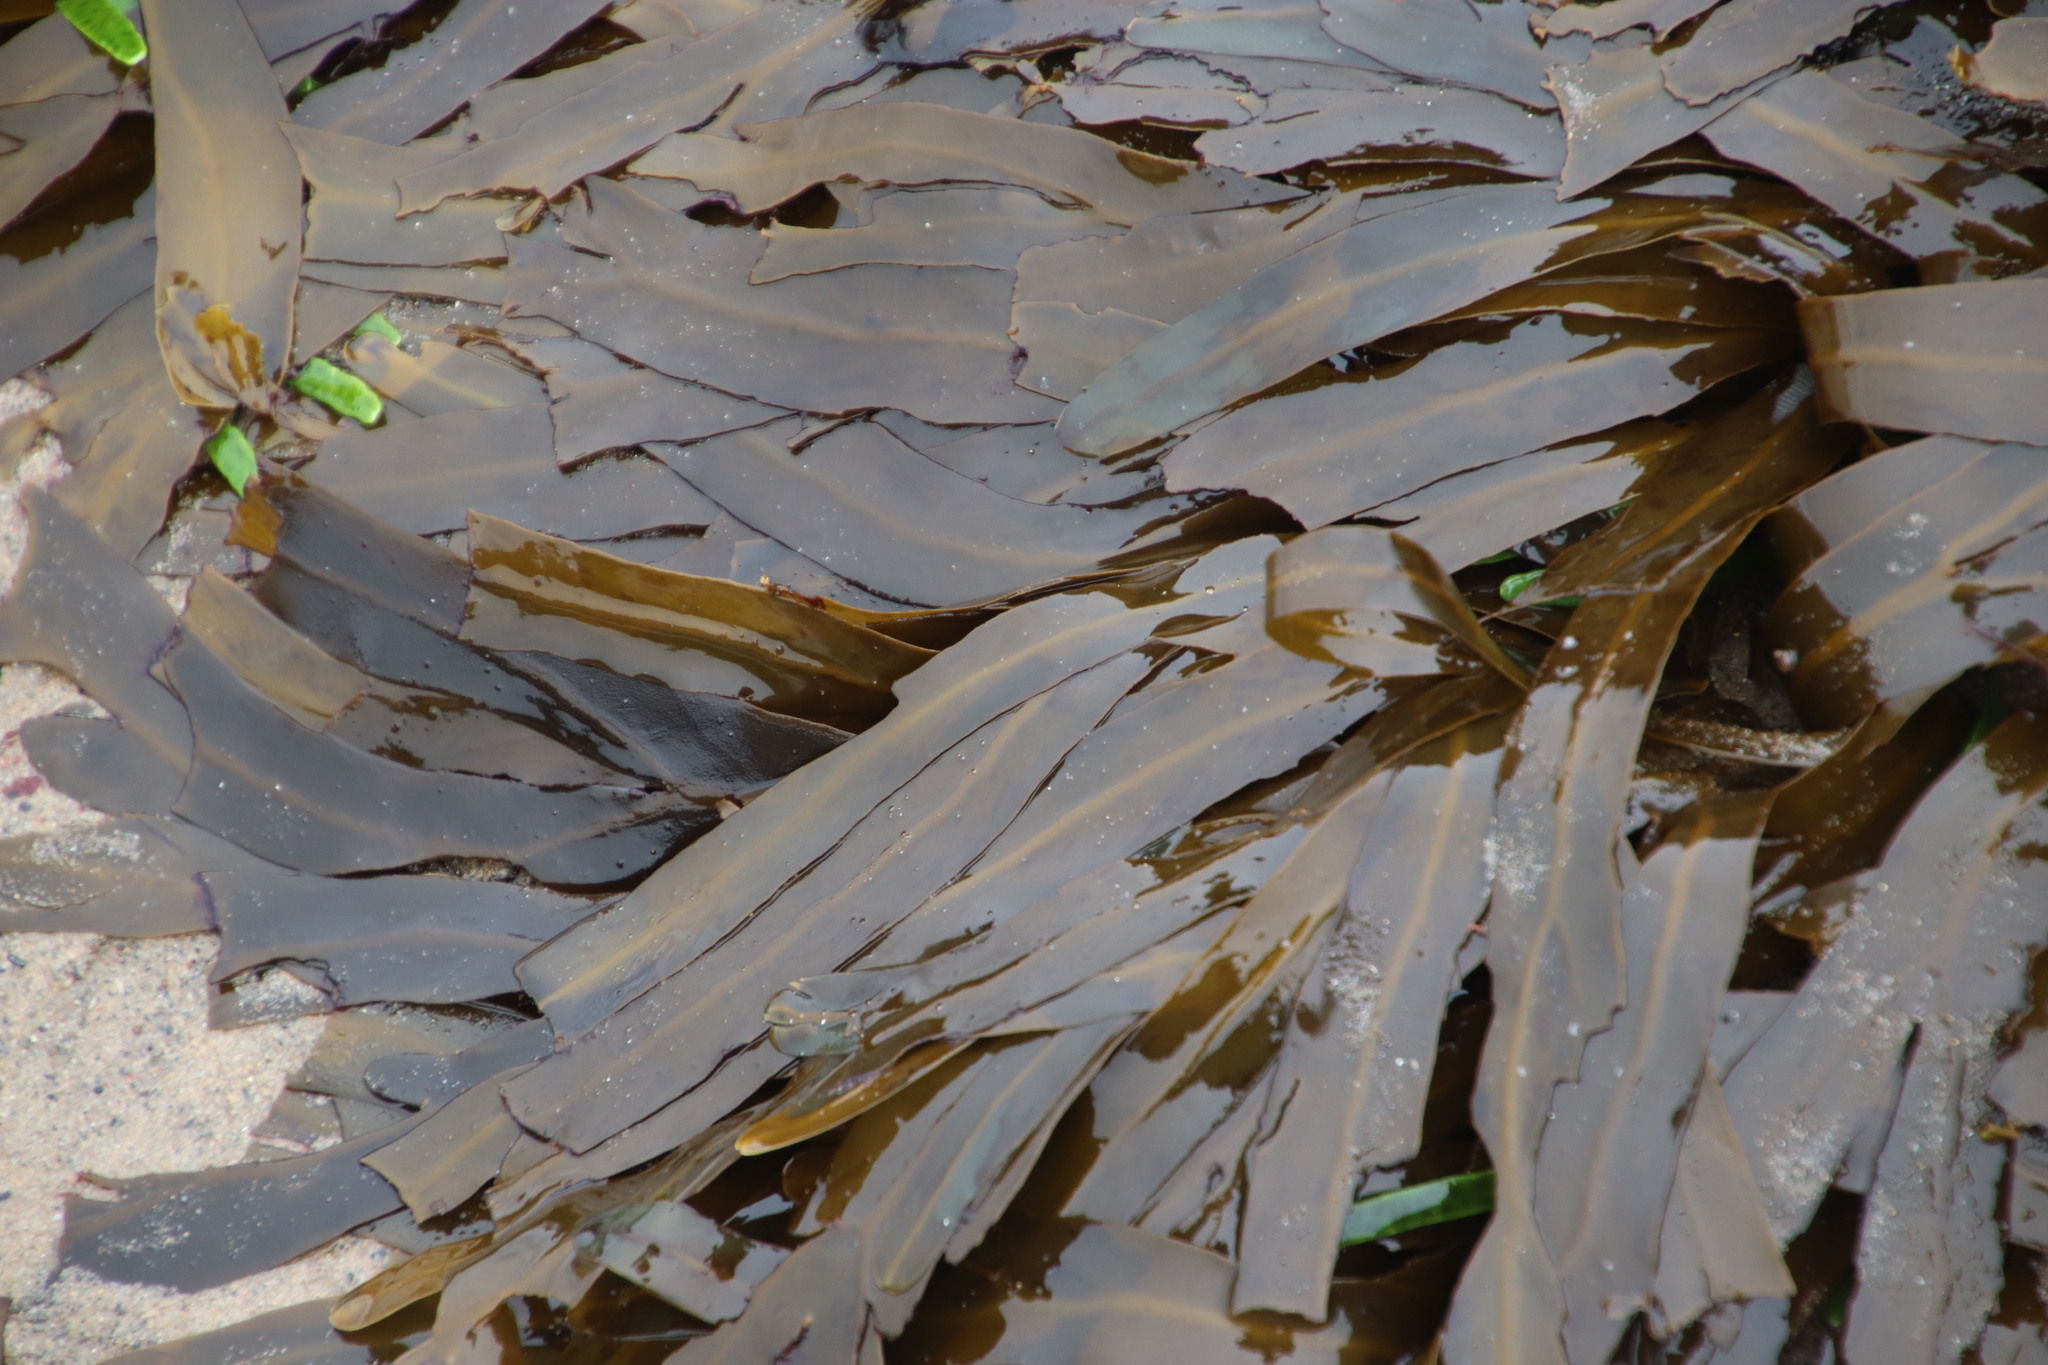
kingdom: Chromista
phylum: Ochrophyta
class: Phaeophyceae
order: Dictyotales
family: Dictyotaceae
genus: Dictyopteris
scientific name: Dictyopteris
